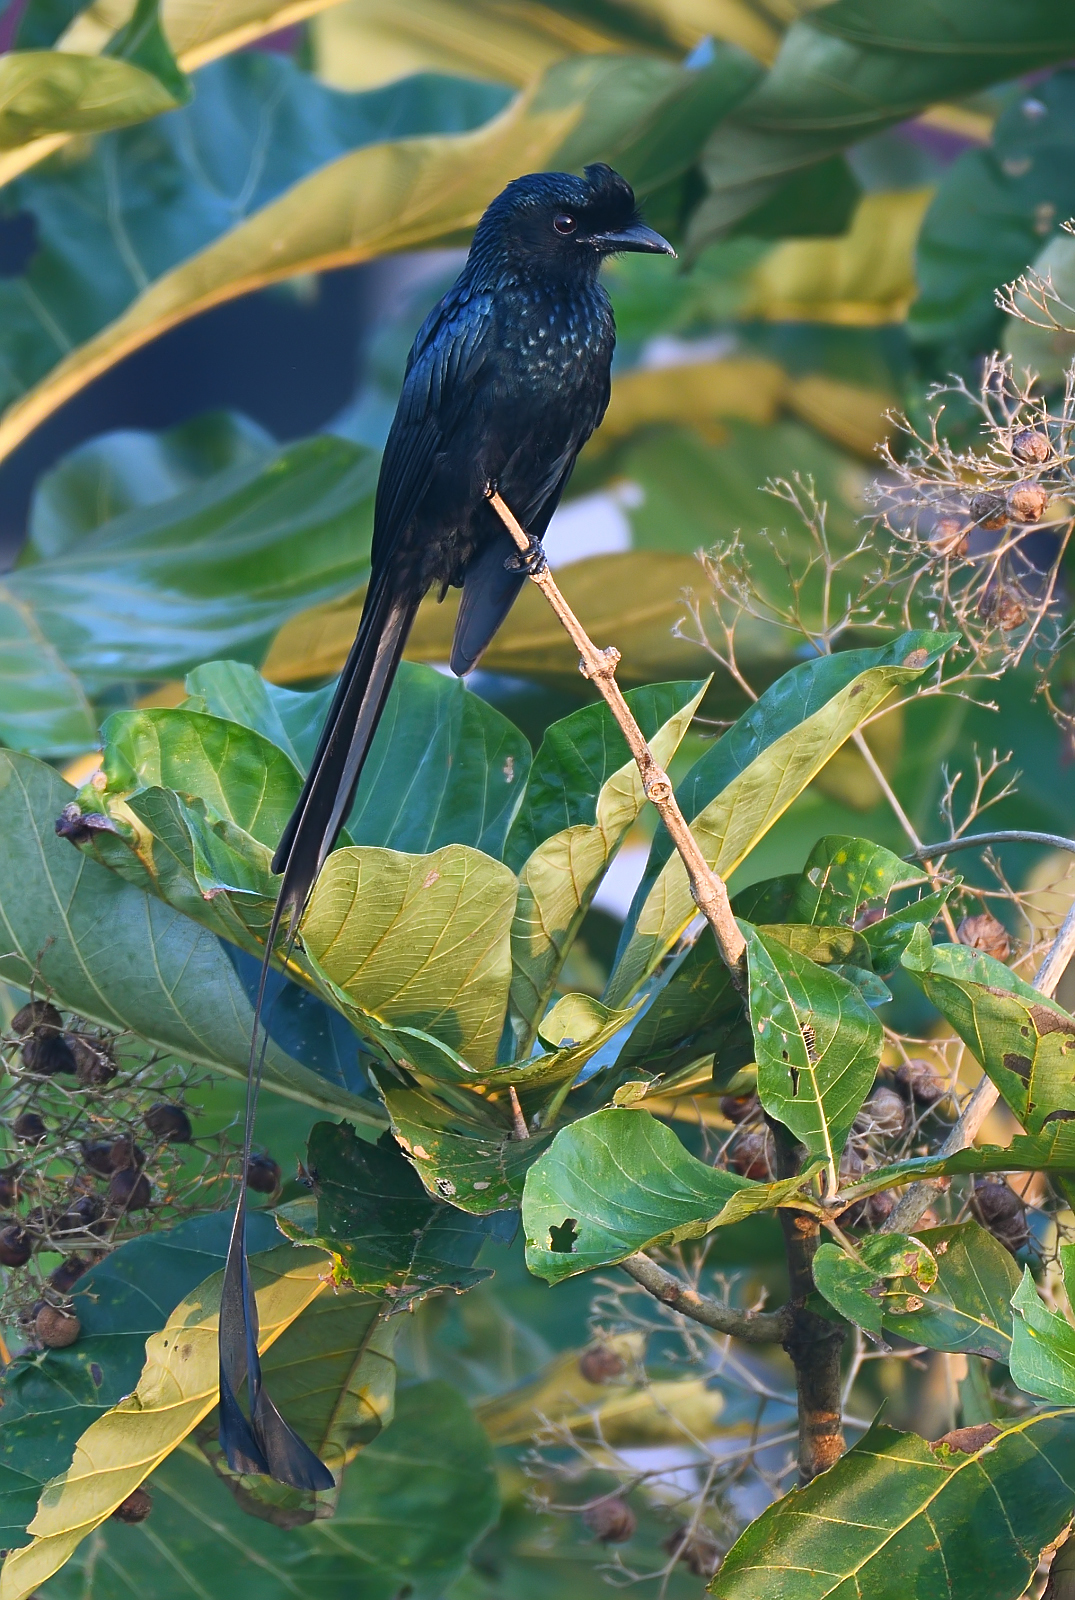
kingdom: Animalia
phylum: Chordata
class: Aves
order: Passeriformes
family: Dicruridae
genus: Dicrurus
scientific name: Dicrurus paradiseus
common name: Greater racket-tailed drongo
